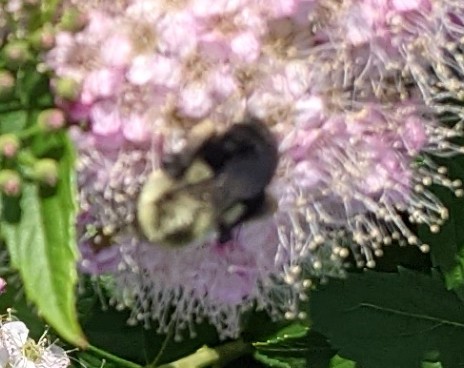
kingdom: Animalia
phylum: Arthropoda
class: Insecta
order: Hymenoptera
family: Apidae
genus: Bombus
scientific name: Bombus impatiens
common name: Common eastern bumble bee
